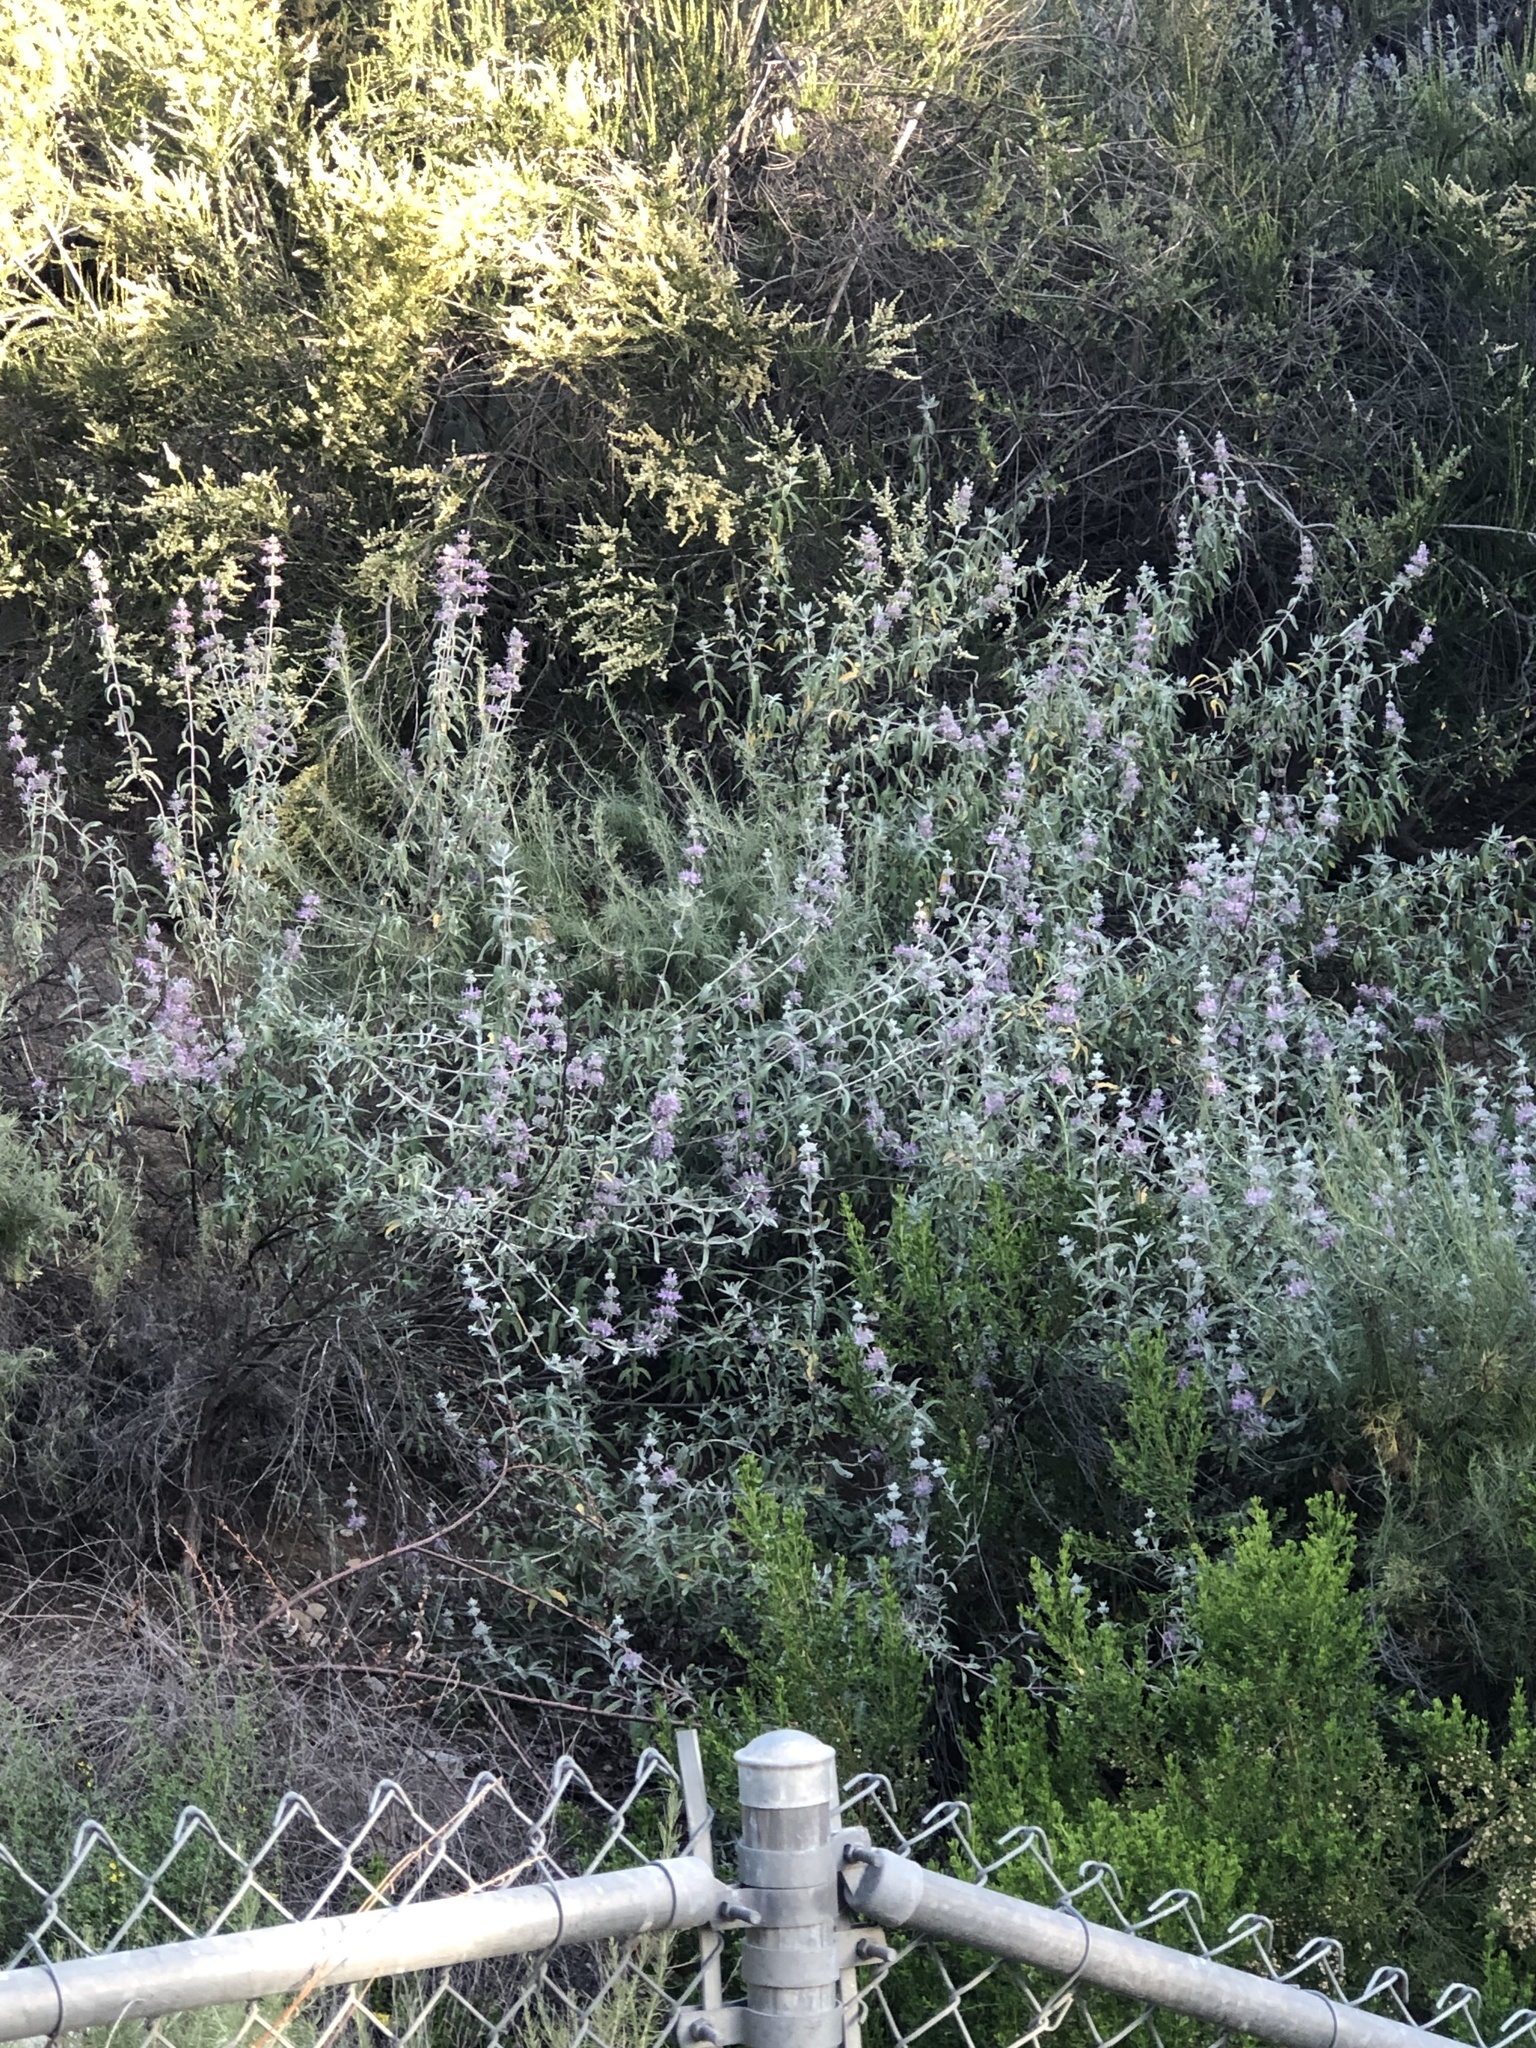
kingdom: Plantae
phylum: Tracheophyta
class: Magnoliopsida
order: Lamiales
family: Lamiaceae
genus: Salvia
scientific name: Salvia leucophylla
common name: Purple sage
